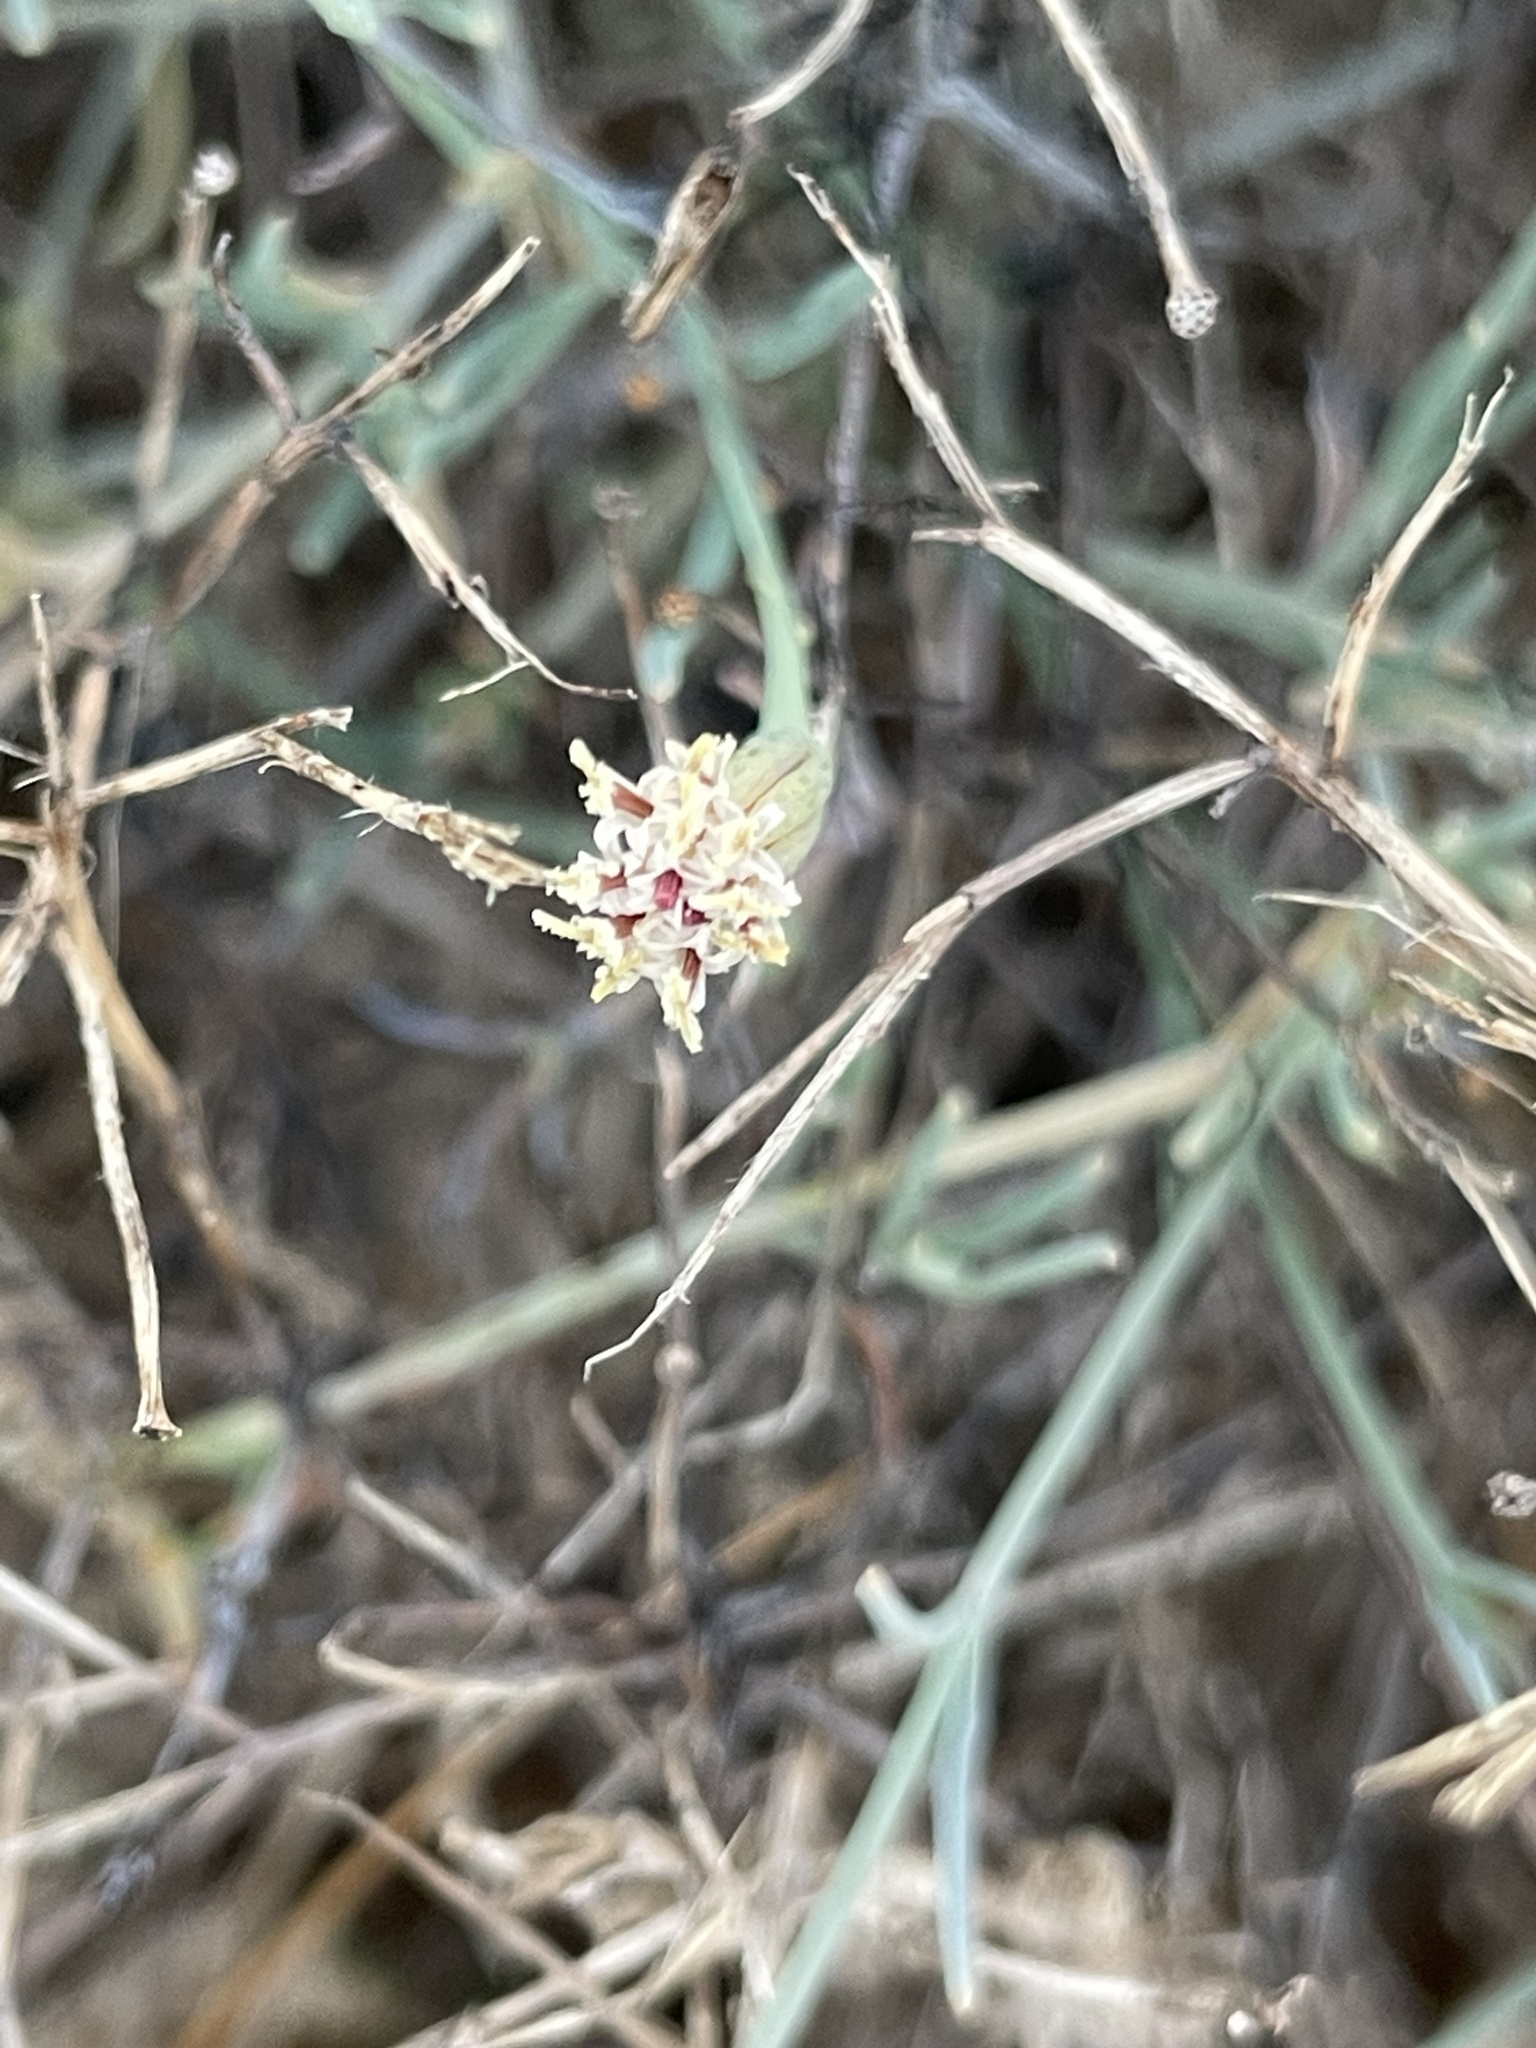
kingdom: Plantae
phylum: Tracheophyta
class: Magnoliopsida
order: Asterales
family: Asteraceae
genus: Porophyllum
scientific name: Porophyllum gracile
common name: Odora
